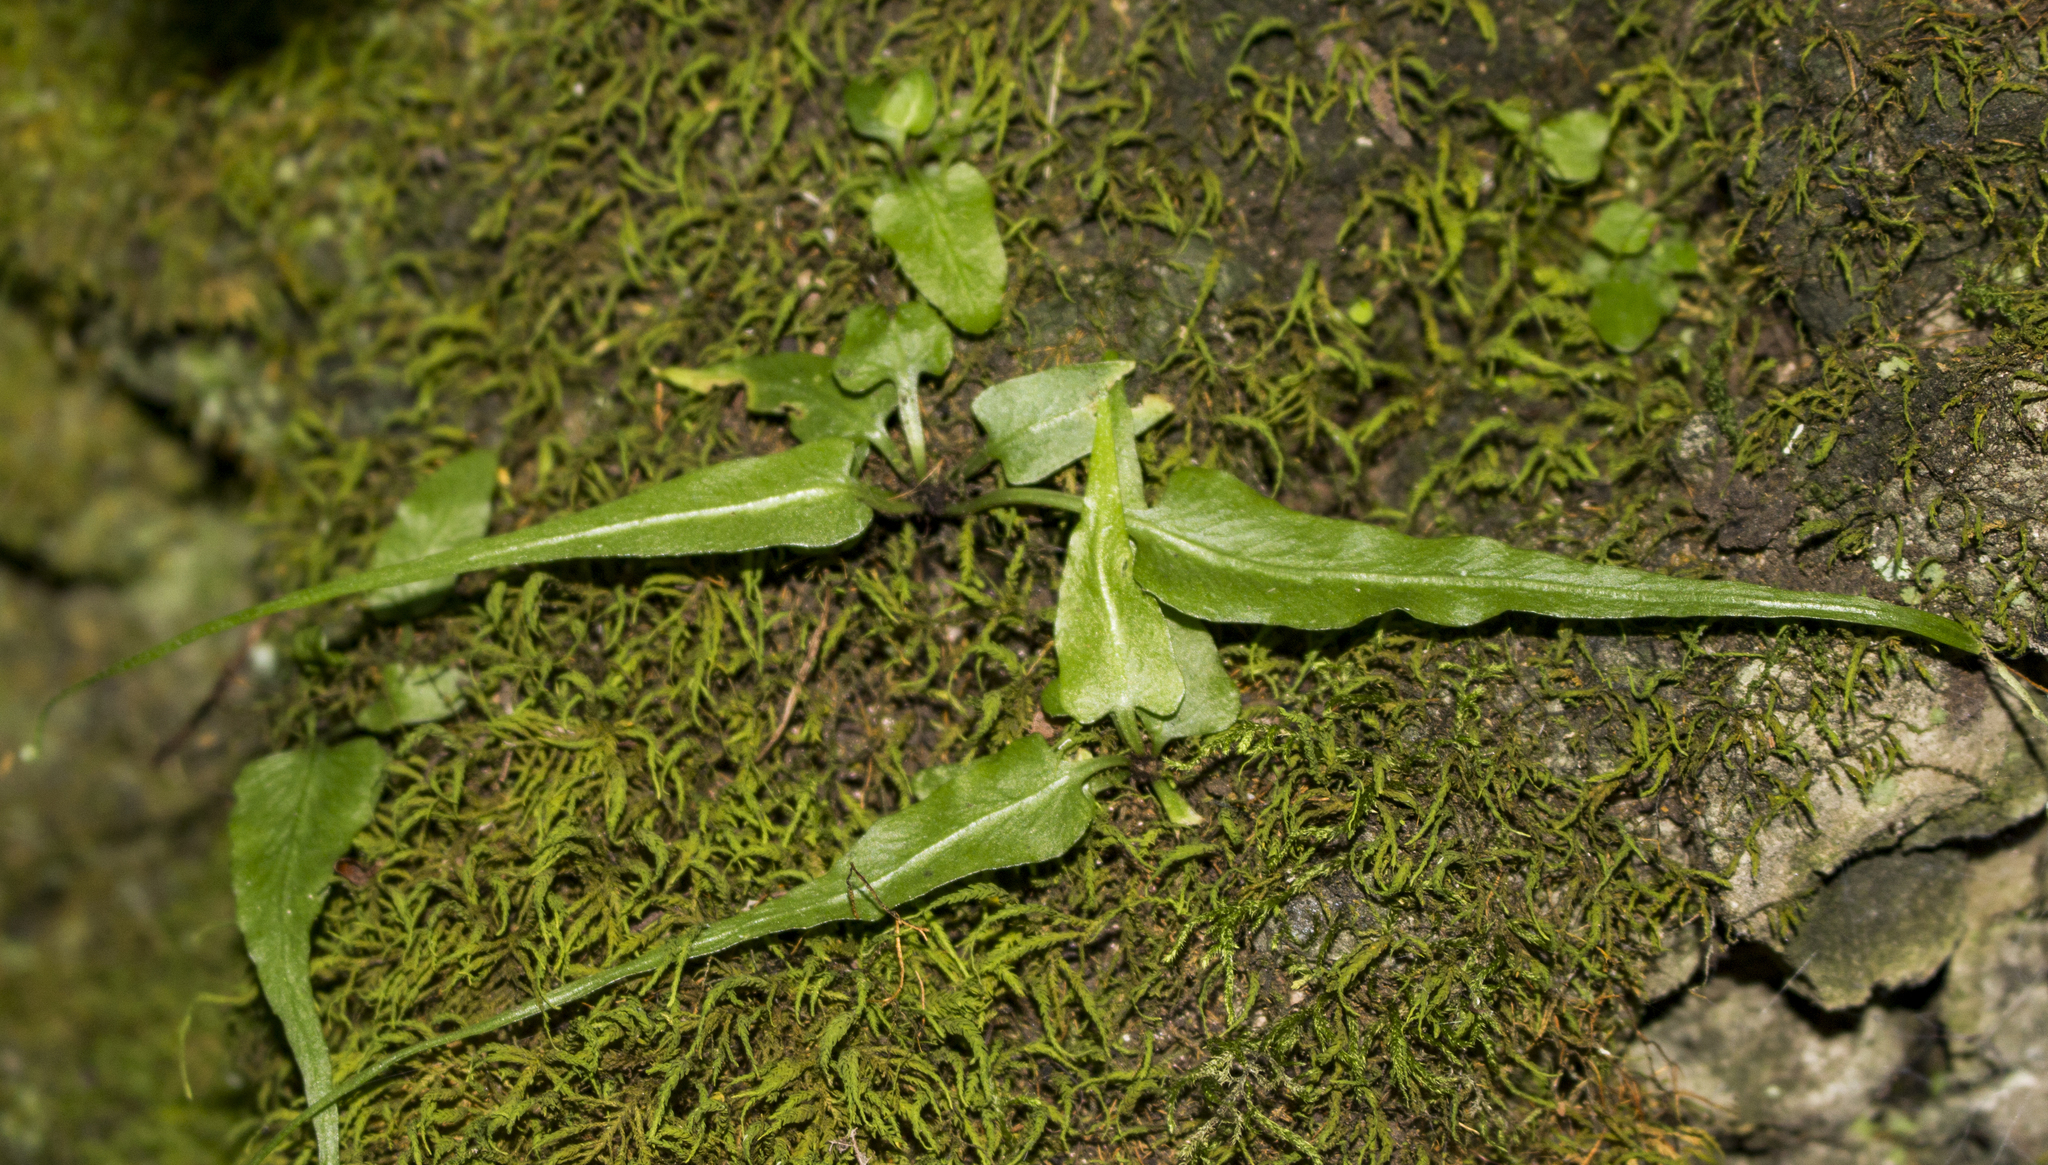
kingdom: Plantae
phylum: Tracheophyta
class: Polypodiopsida
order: Polypodiales
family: Aspleniaceae
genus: Asplenium
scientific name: Asplenium rhizophyllum
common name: Walking fern
